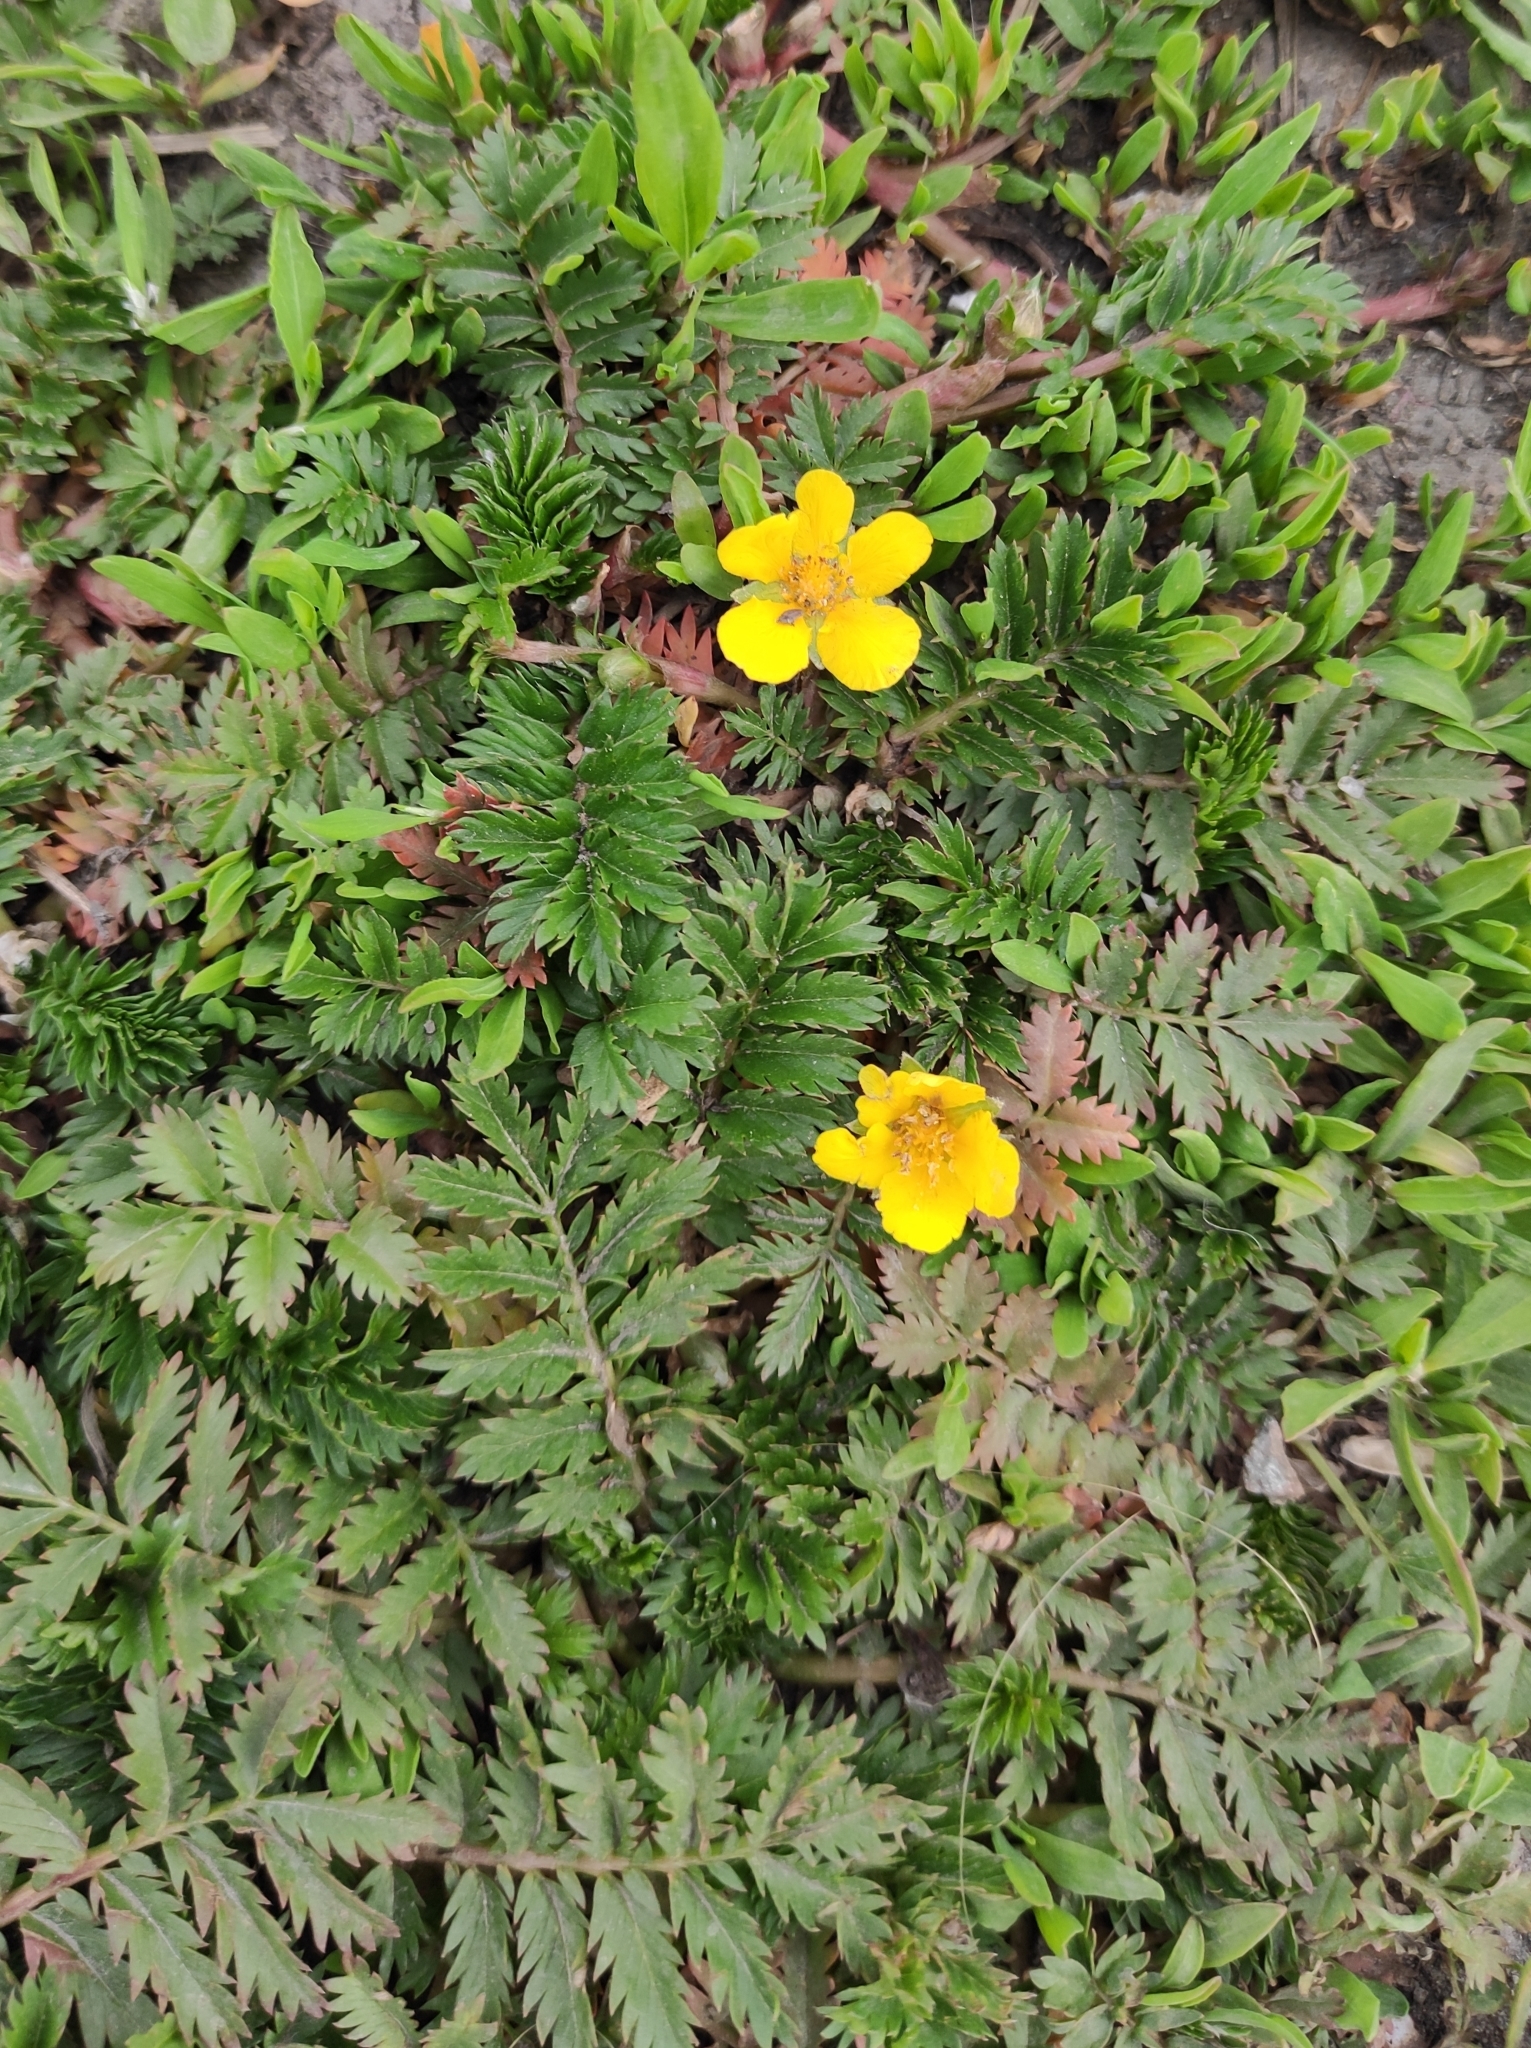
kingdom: Plantae
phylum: Tracheophyta
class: Magnoliopsida
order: Rosales
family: Rosaceae
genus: Argentina
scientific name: Argentina anserina
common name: Common silverweed
